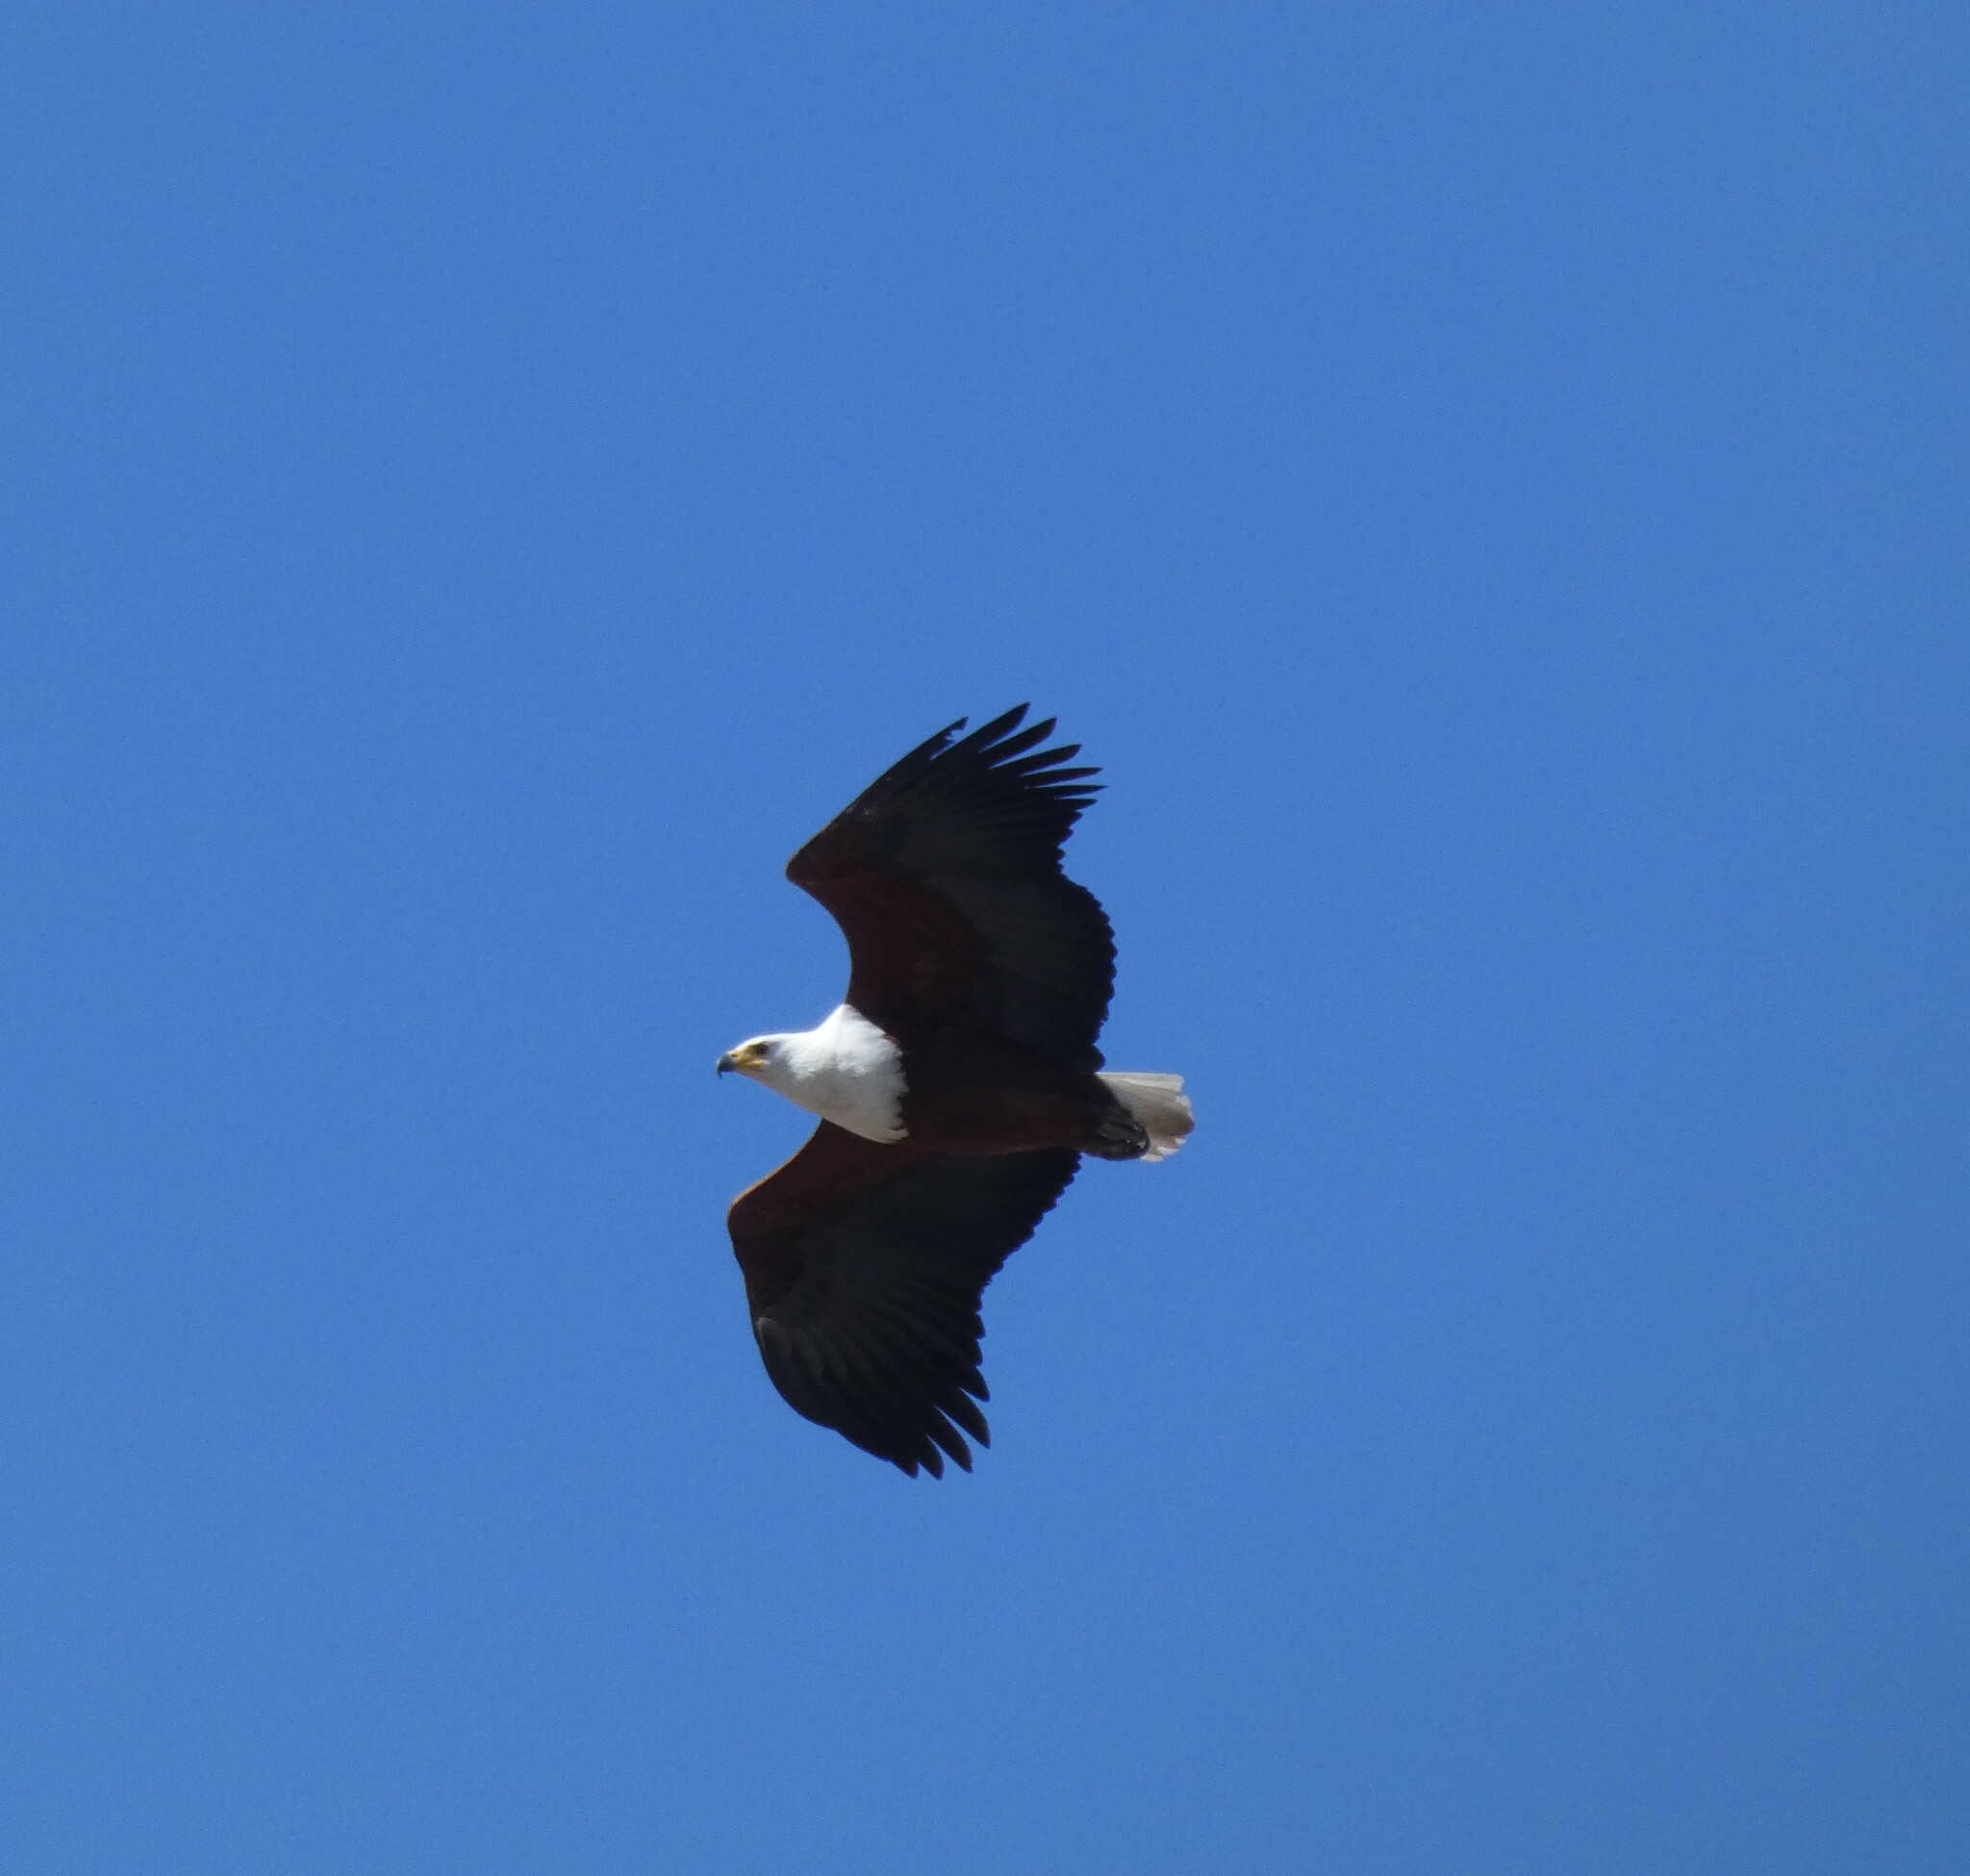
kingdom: Animalia
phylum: Chordata
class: Aves
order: Accipitriformes
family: Accipitridae
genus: Haliaeetus
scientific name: Haliaeetus vocifer
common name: African fish eagle
